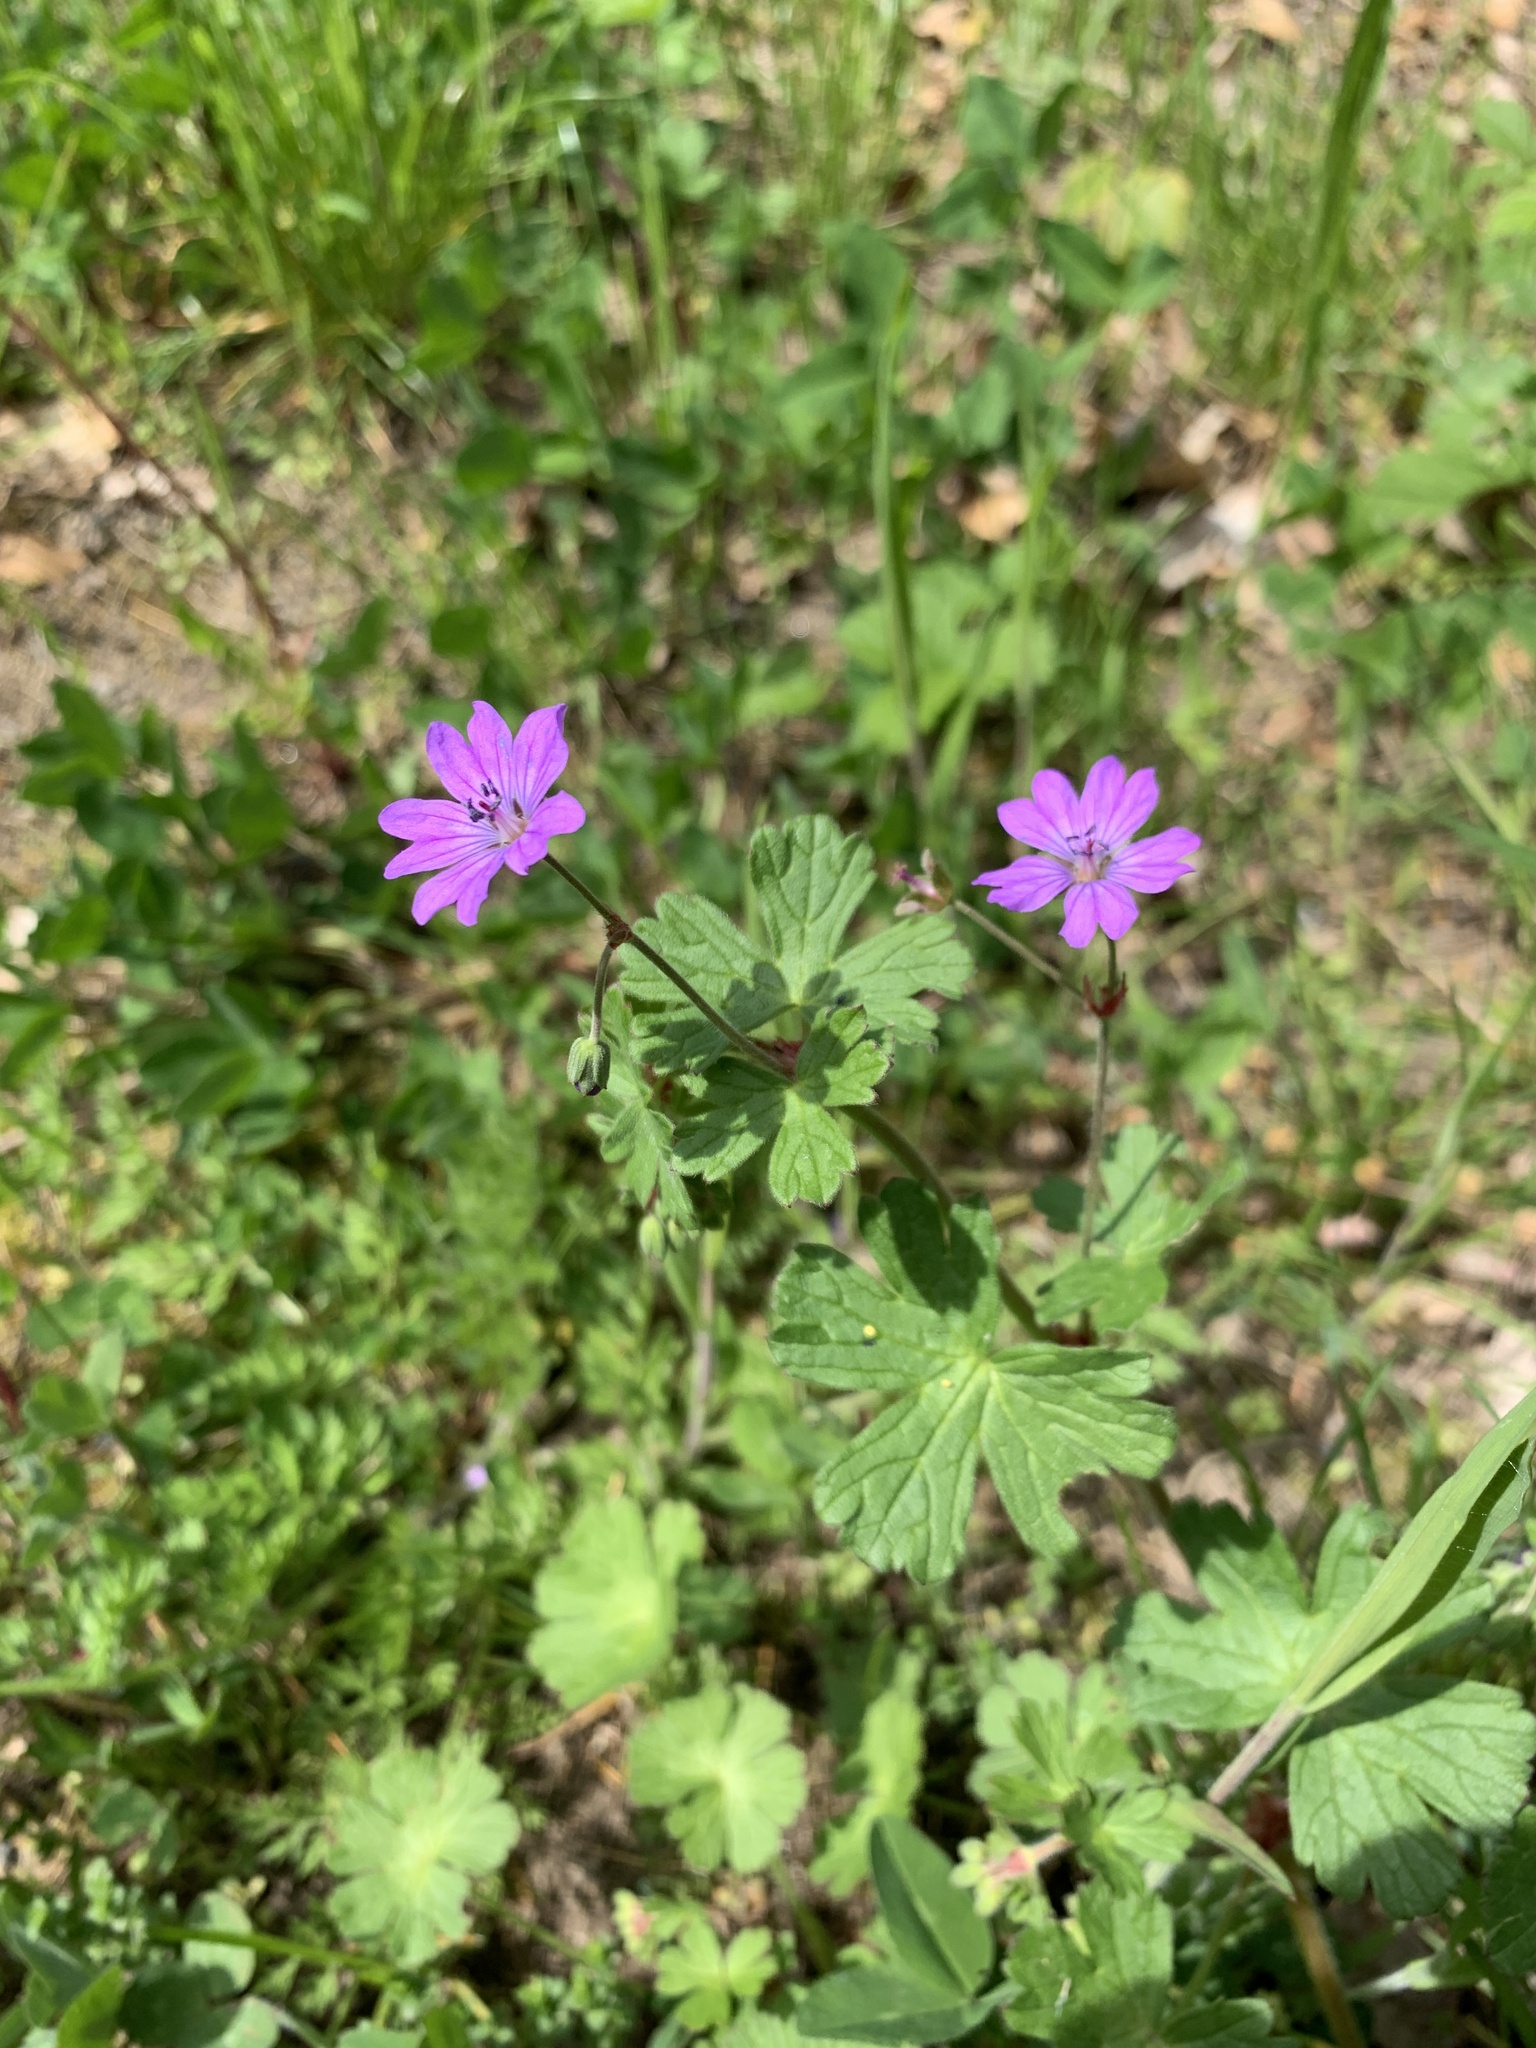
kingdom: Plantae
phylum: Tracheophyta
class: Magnoliopsida
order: Geraniales
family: Geraniaceae
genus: Geranium
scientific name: Geranium pyrenaicum
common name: Hedgerow crane's-bill
